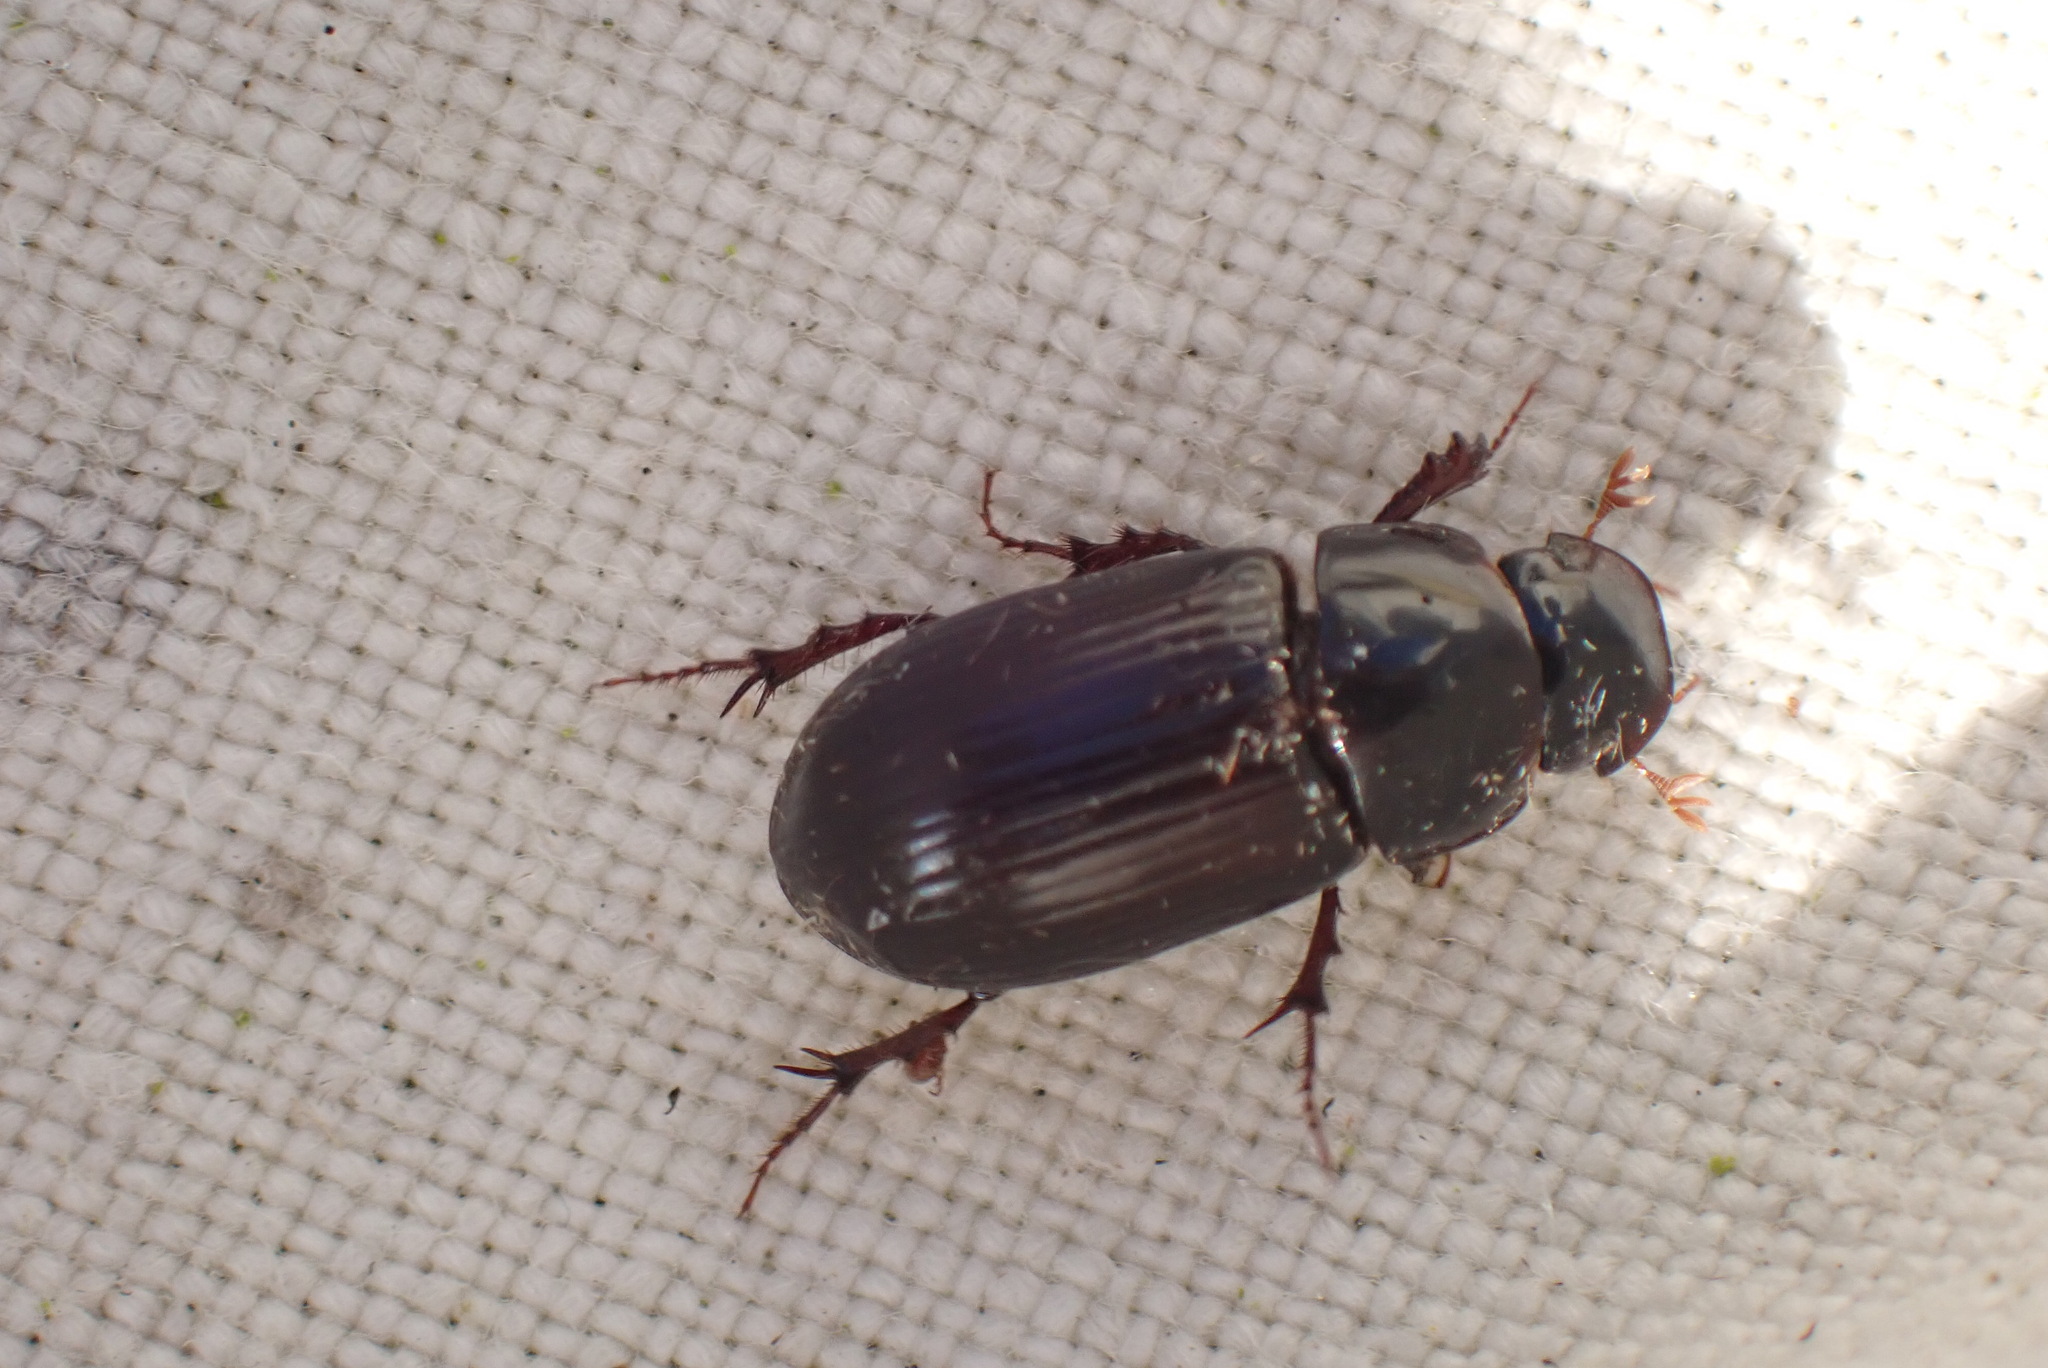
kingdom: Animalia
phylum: Arthropoda
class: Insecta
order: Coleoptera
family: Scarabaeidae
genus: Acrossus
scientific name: Acrossus rufipes
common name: Night-flying dung beetle
